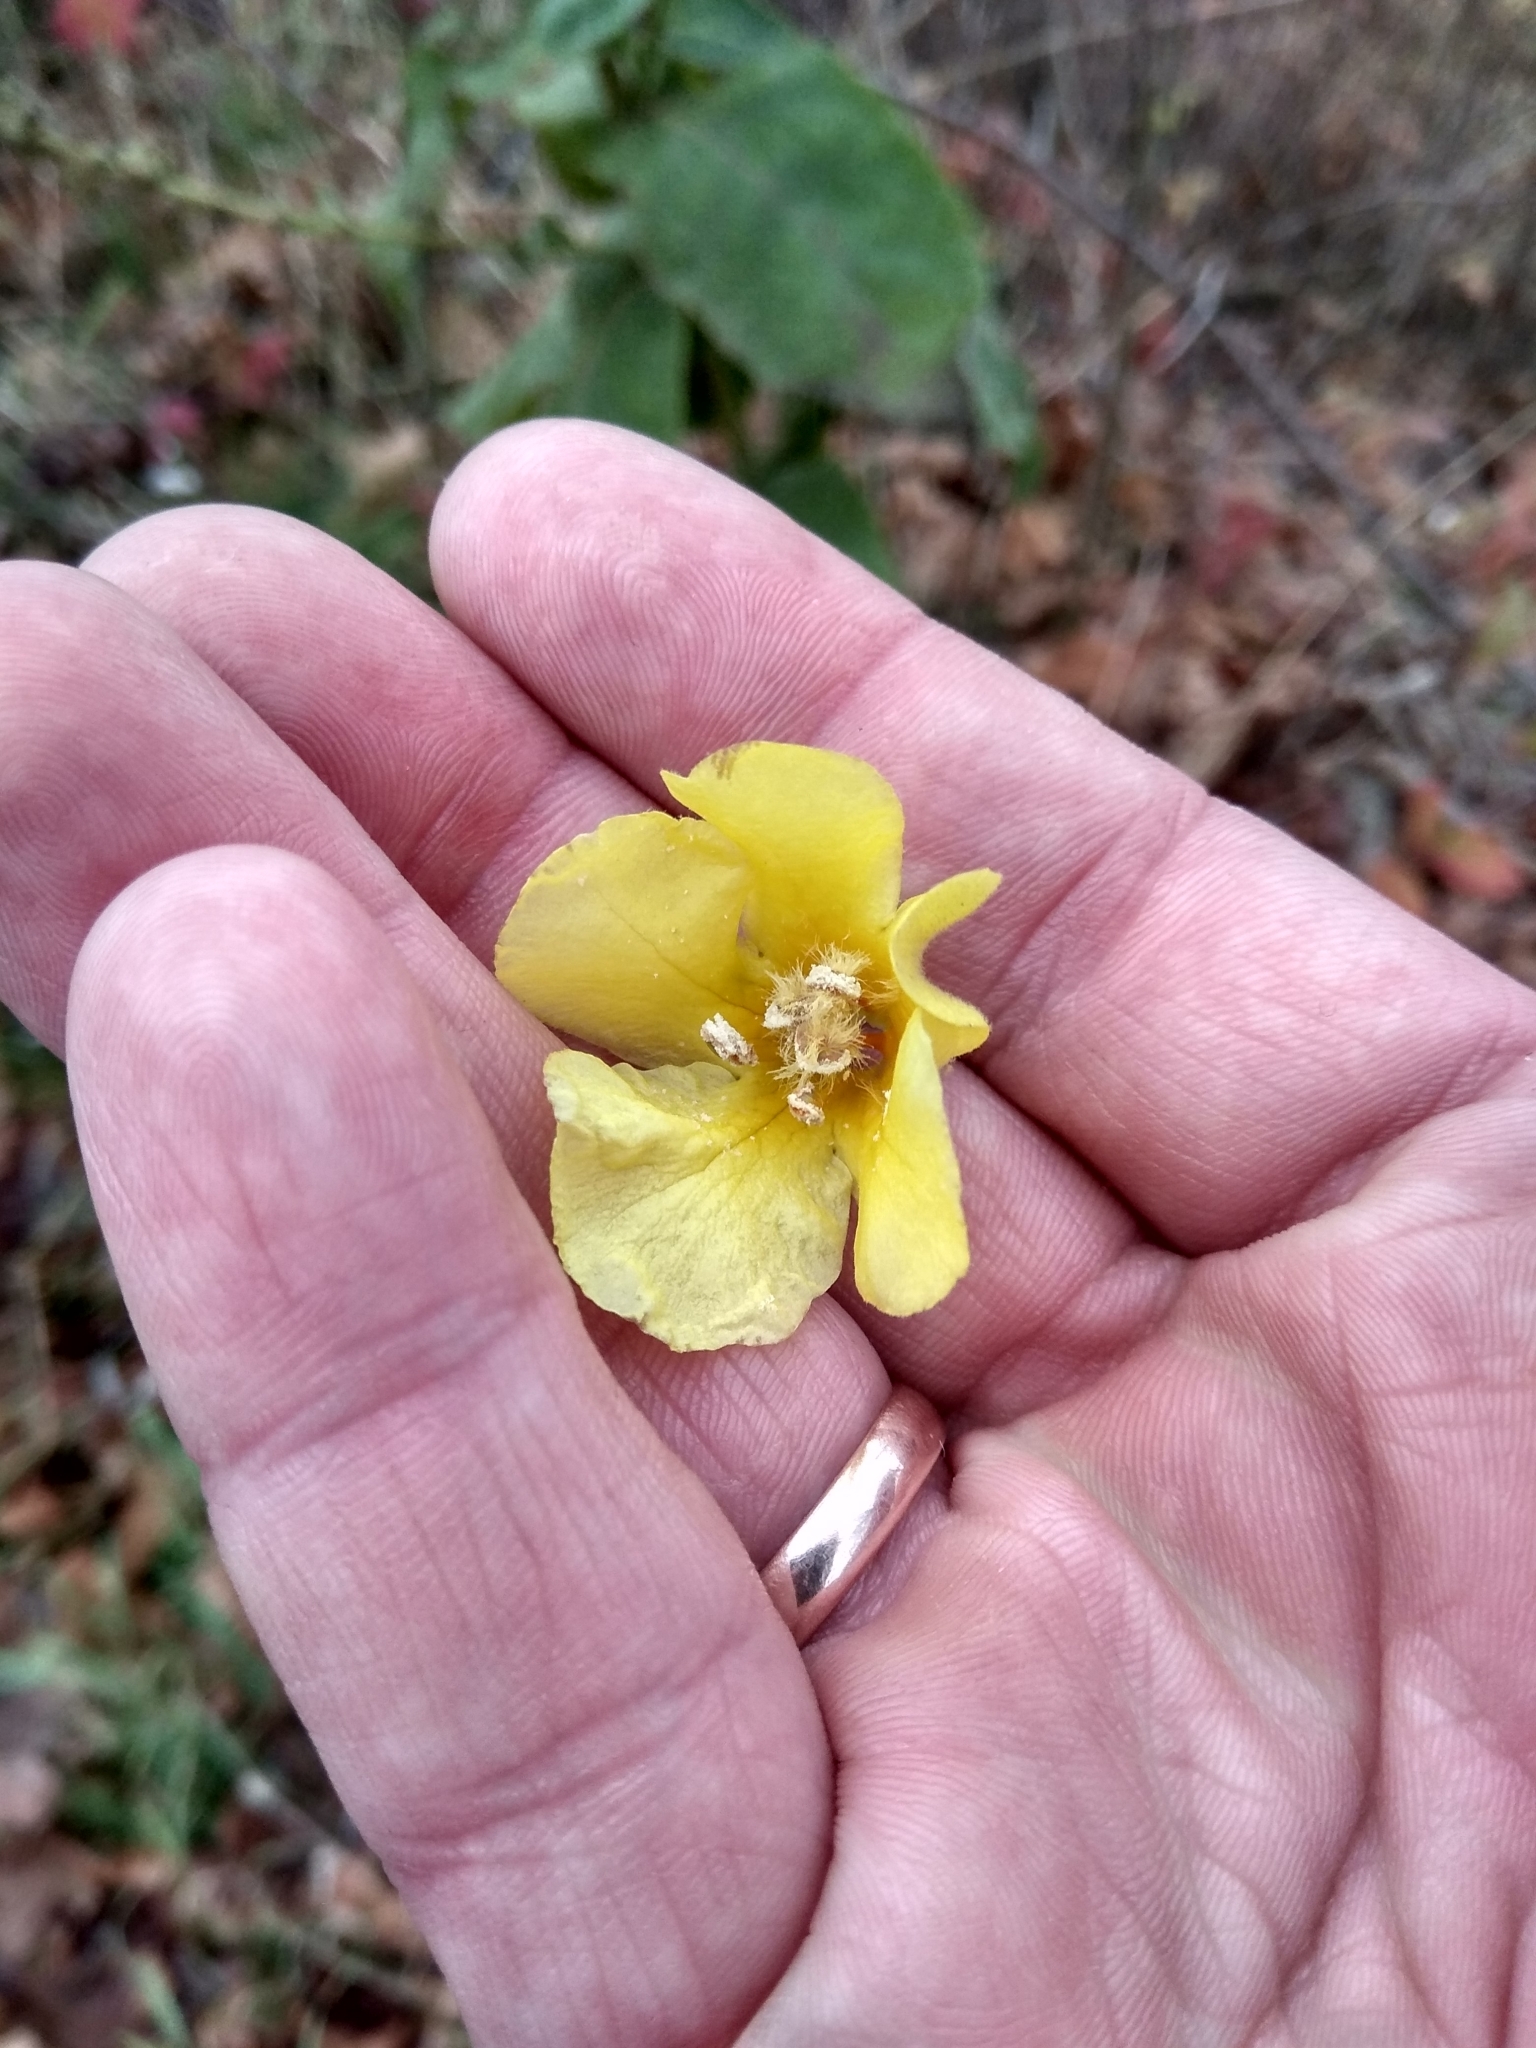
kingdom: Plantae
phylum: Tracheophyta
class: Magnoliopsida
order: Lamiales
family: Scrophulariaceae
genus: Verbascum
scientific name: Verbascum nigrum
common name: Dark mullein
